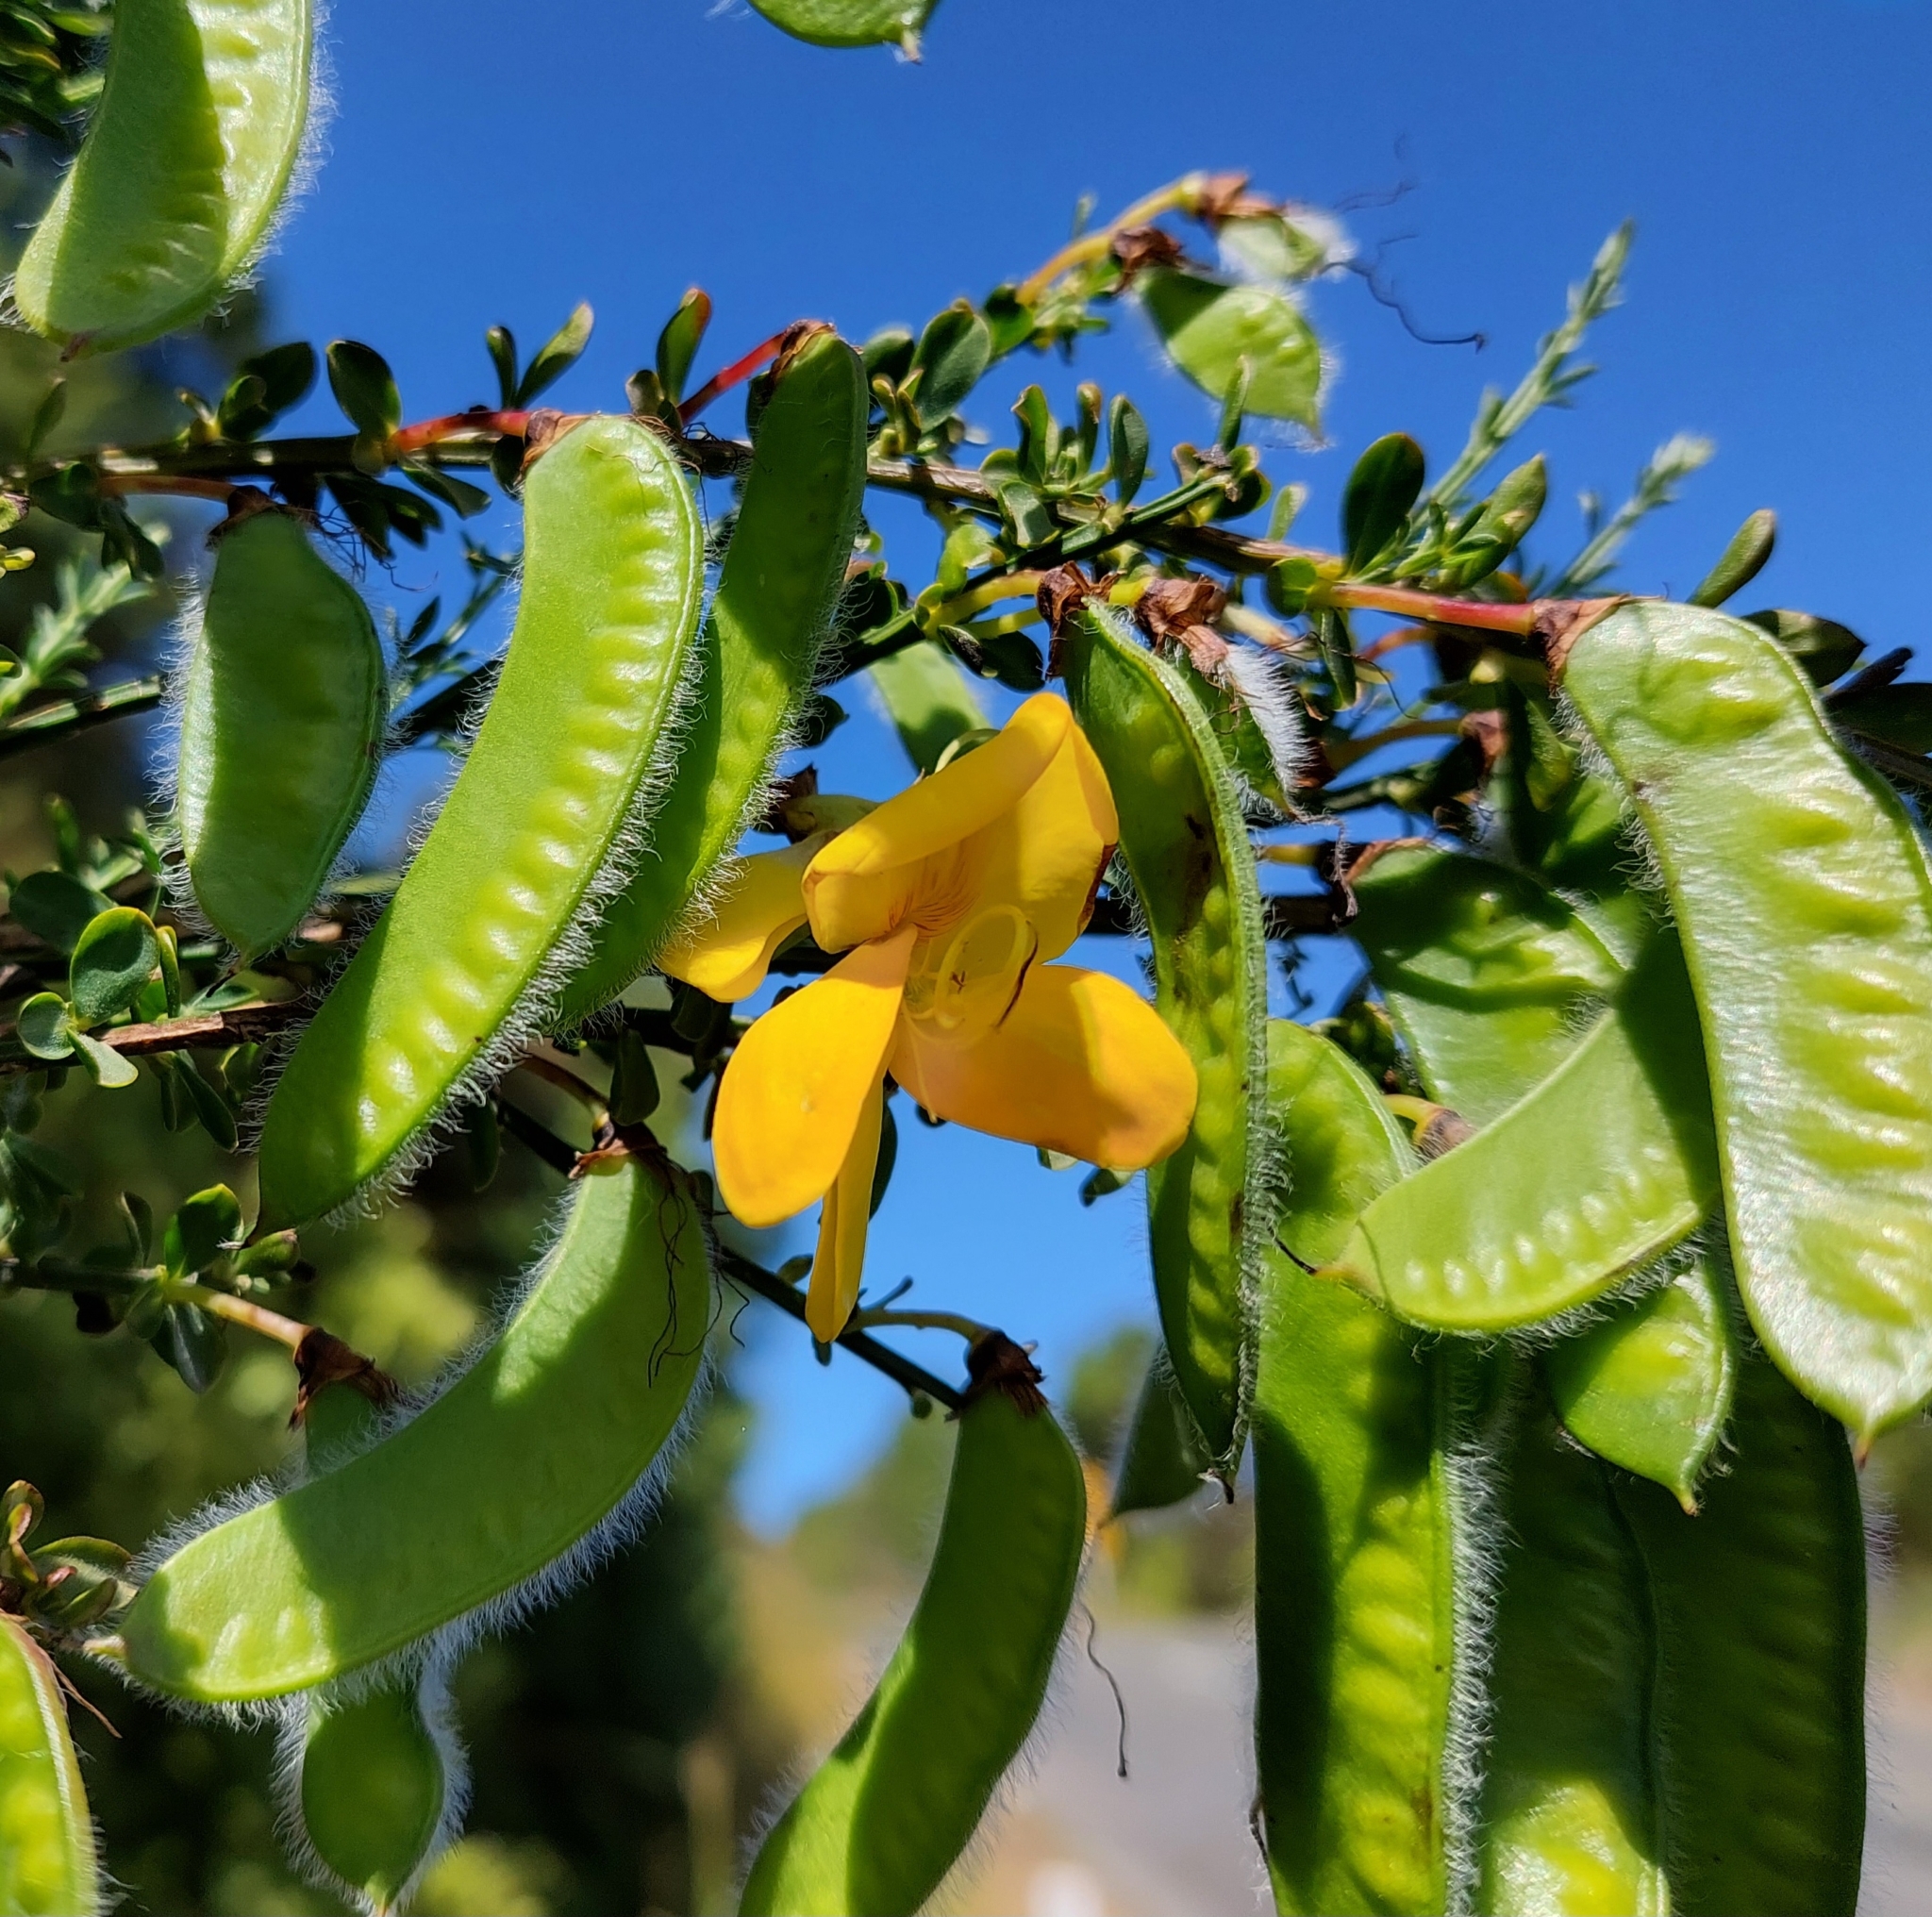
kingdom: Plantae
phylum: Tracheophyta
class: Magnoliopsida
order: Fabales
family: Fabaceae
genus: Cytisus
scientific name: Cytisus scoparius
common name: Scotch broom
